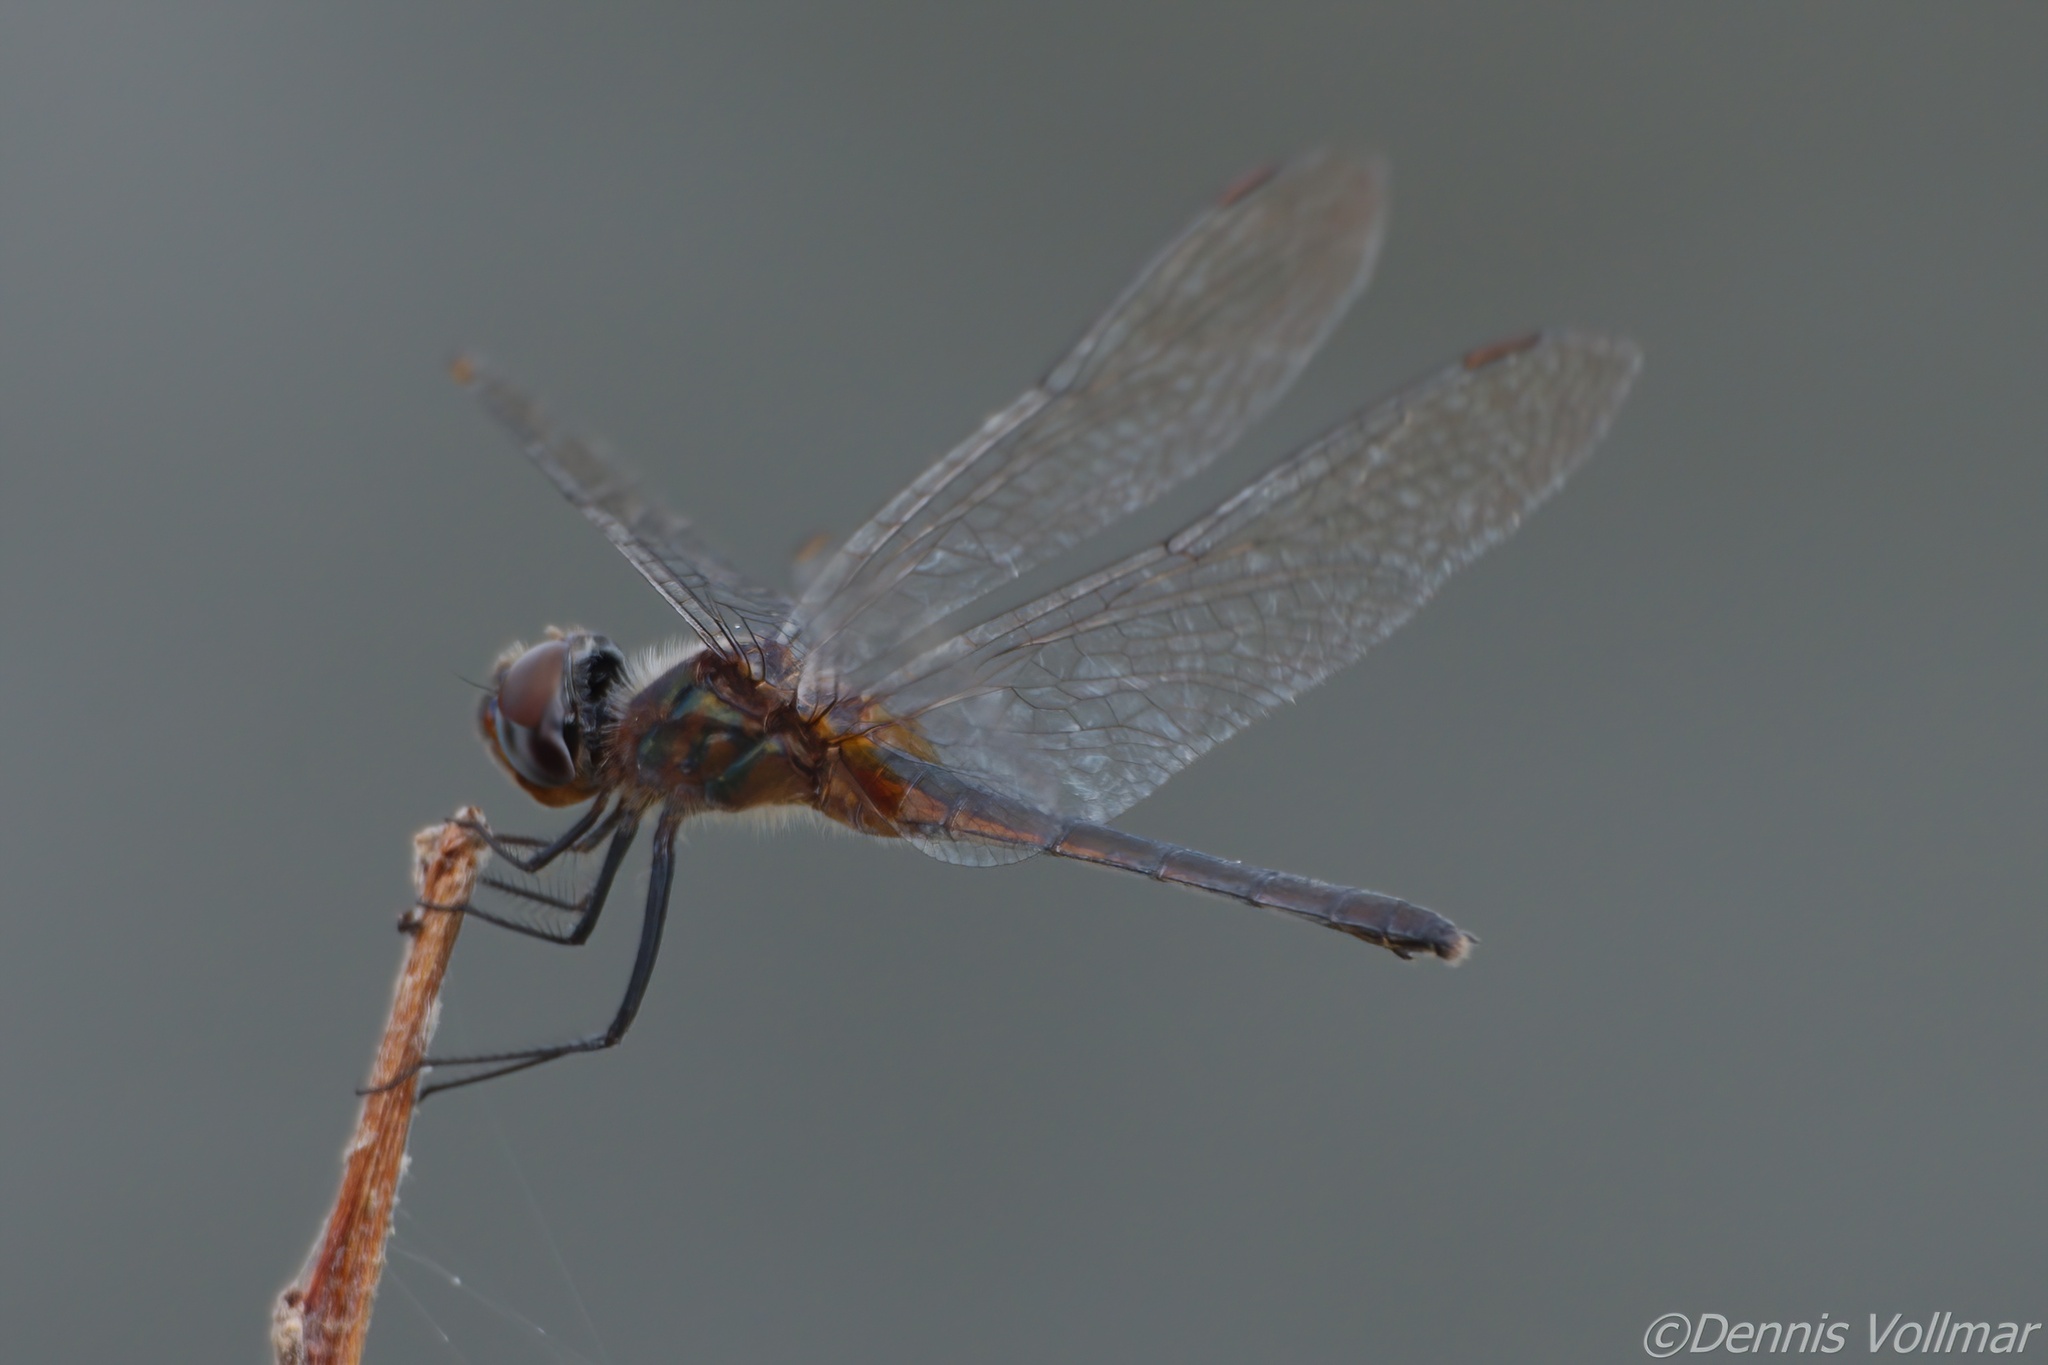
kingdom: Animalia
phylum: Arthropoda
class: Insecta
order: Odonata
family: Libellulidae
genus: Idiataphe
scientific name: Idiataphe cubensis
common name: Metallic pennant
